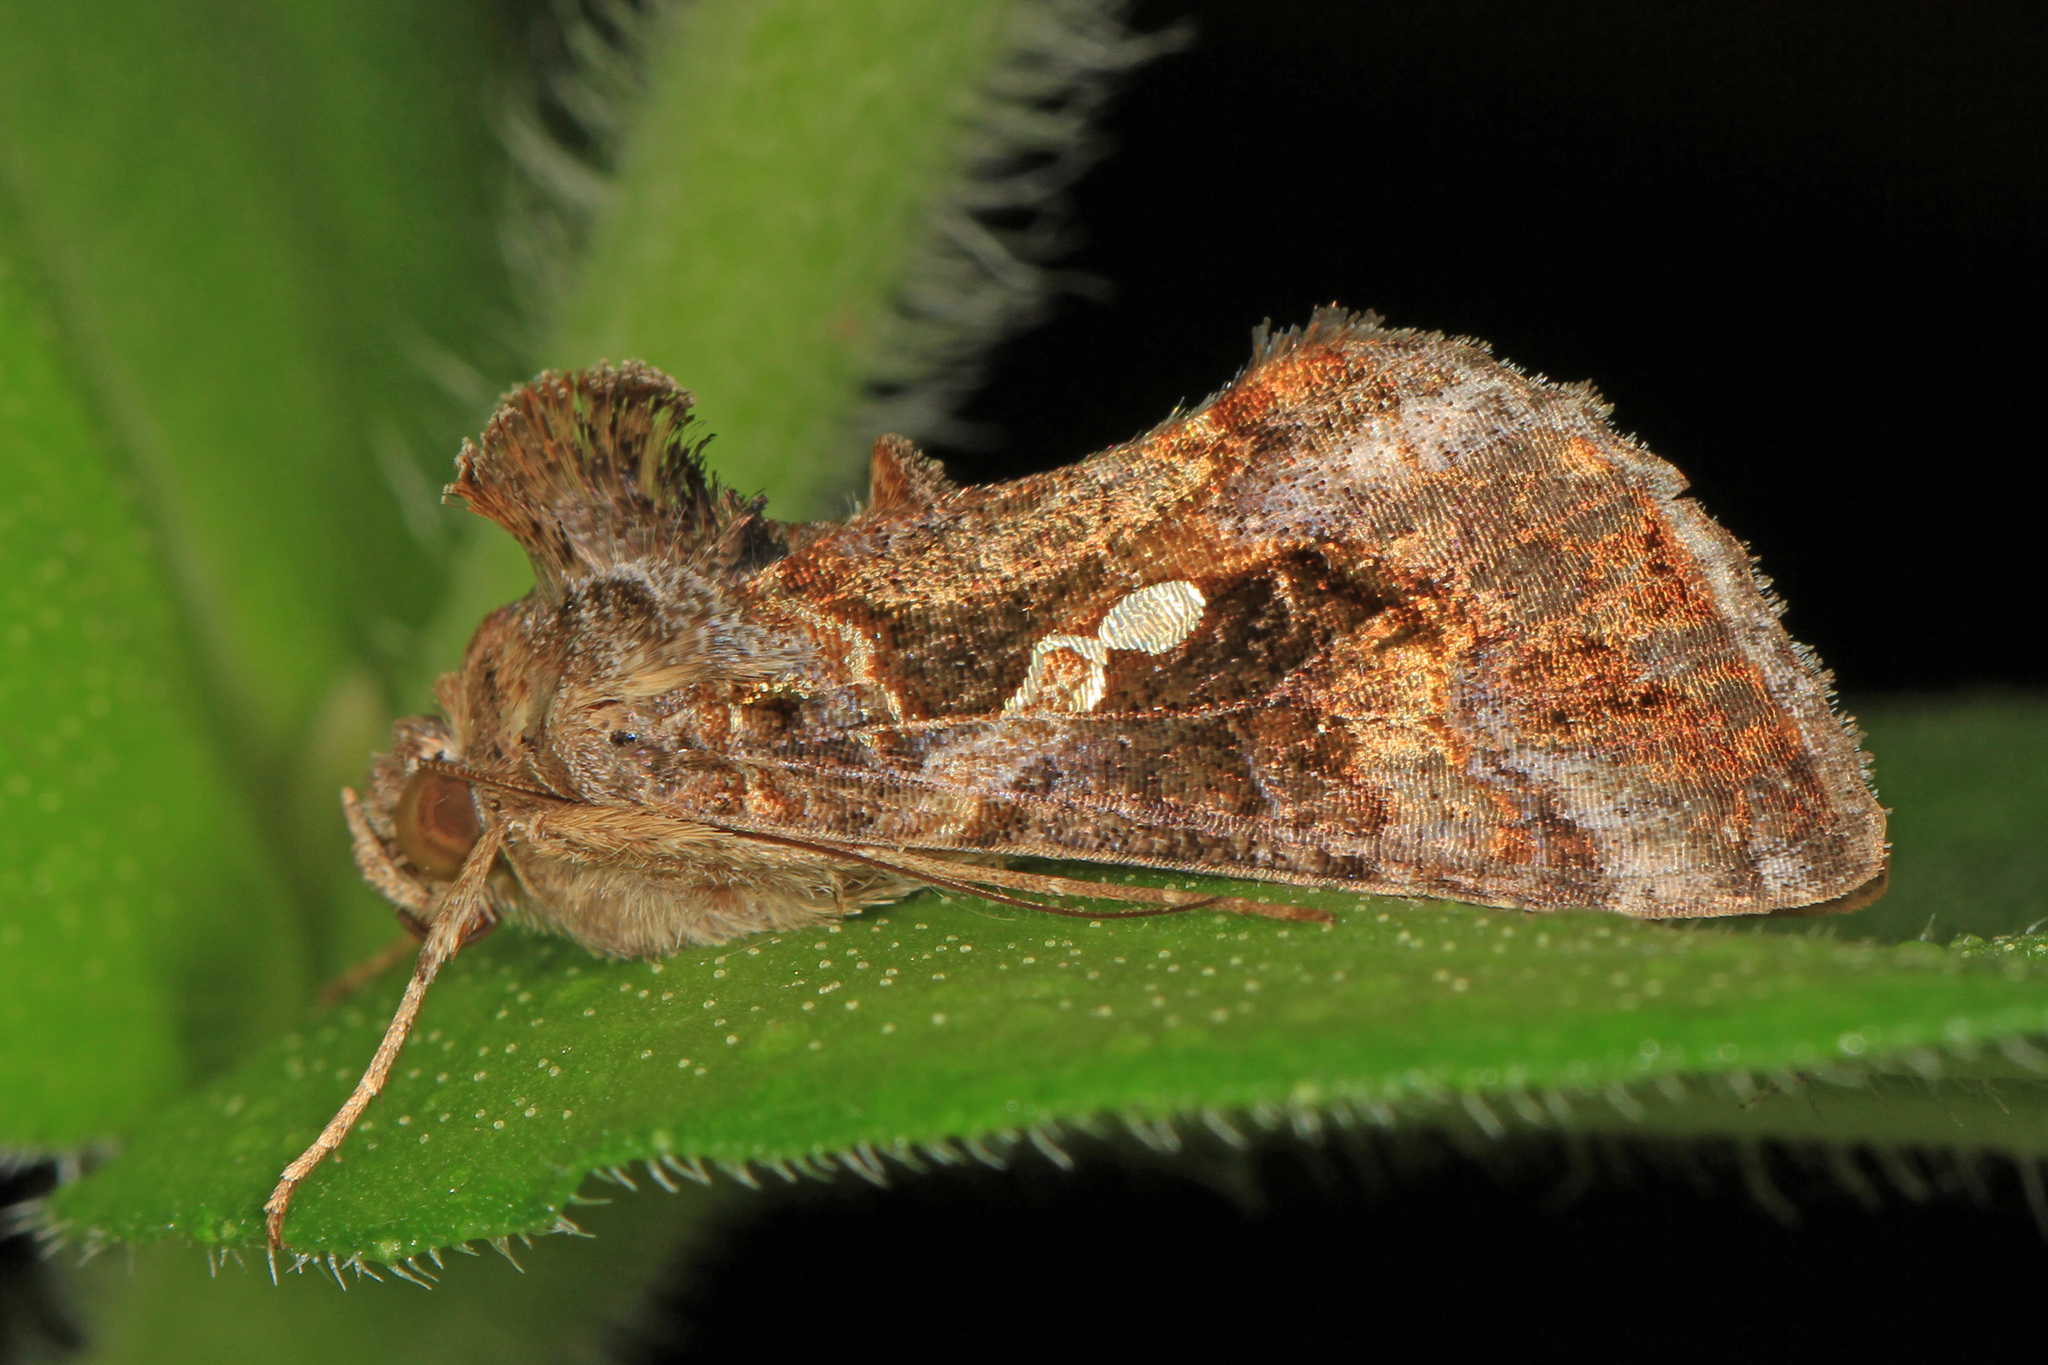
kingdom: Animalia
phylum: Arthropoda
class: Insecta
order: Lepidoptera
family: Noctuidae
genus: Chrysodeixis
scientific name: Chrysodeixis includens
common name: Cutworm moth
